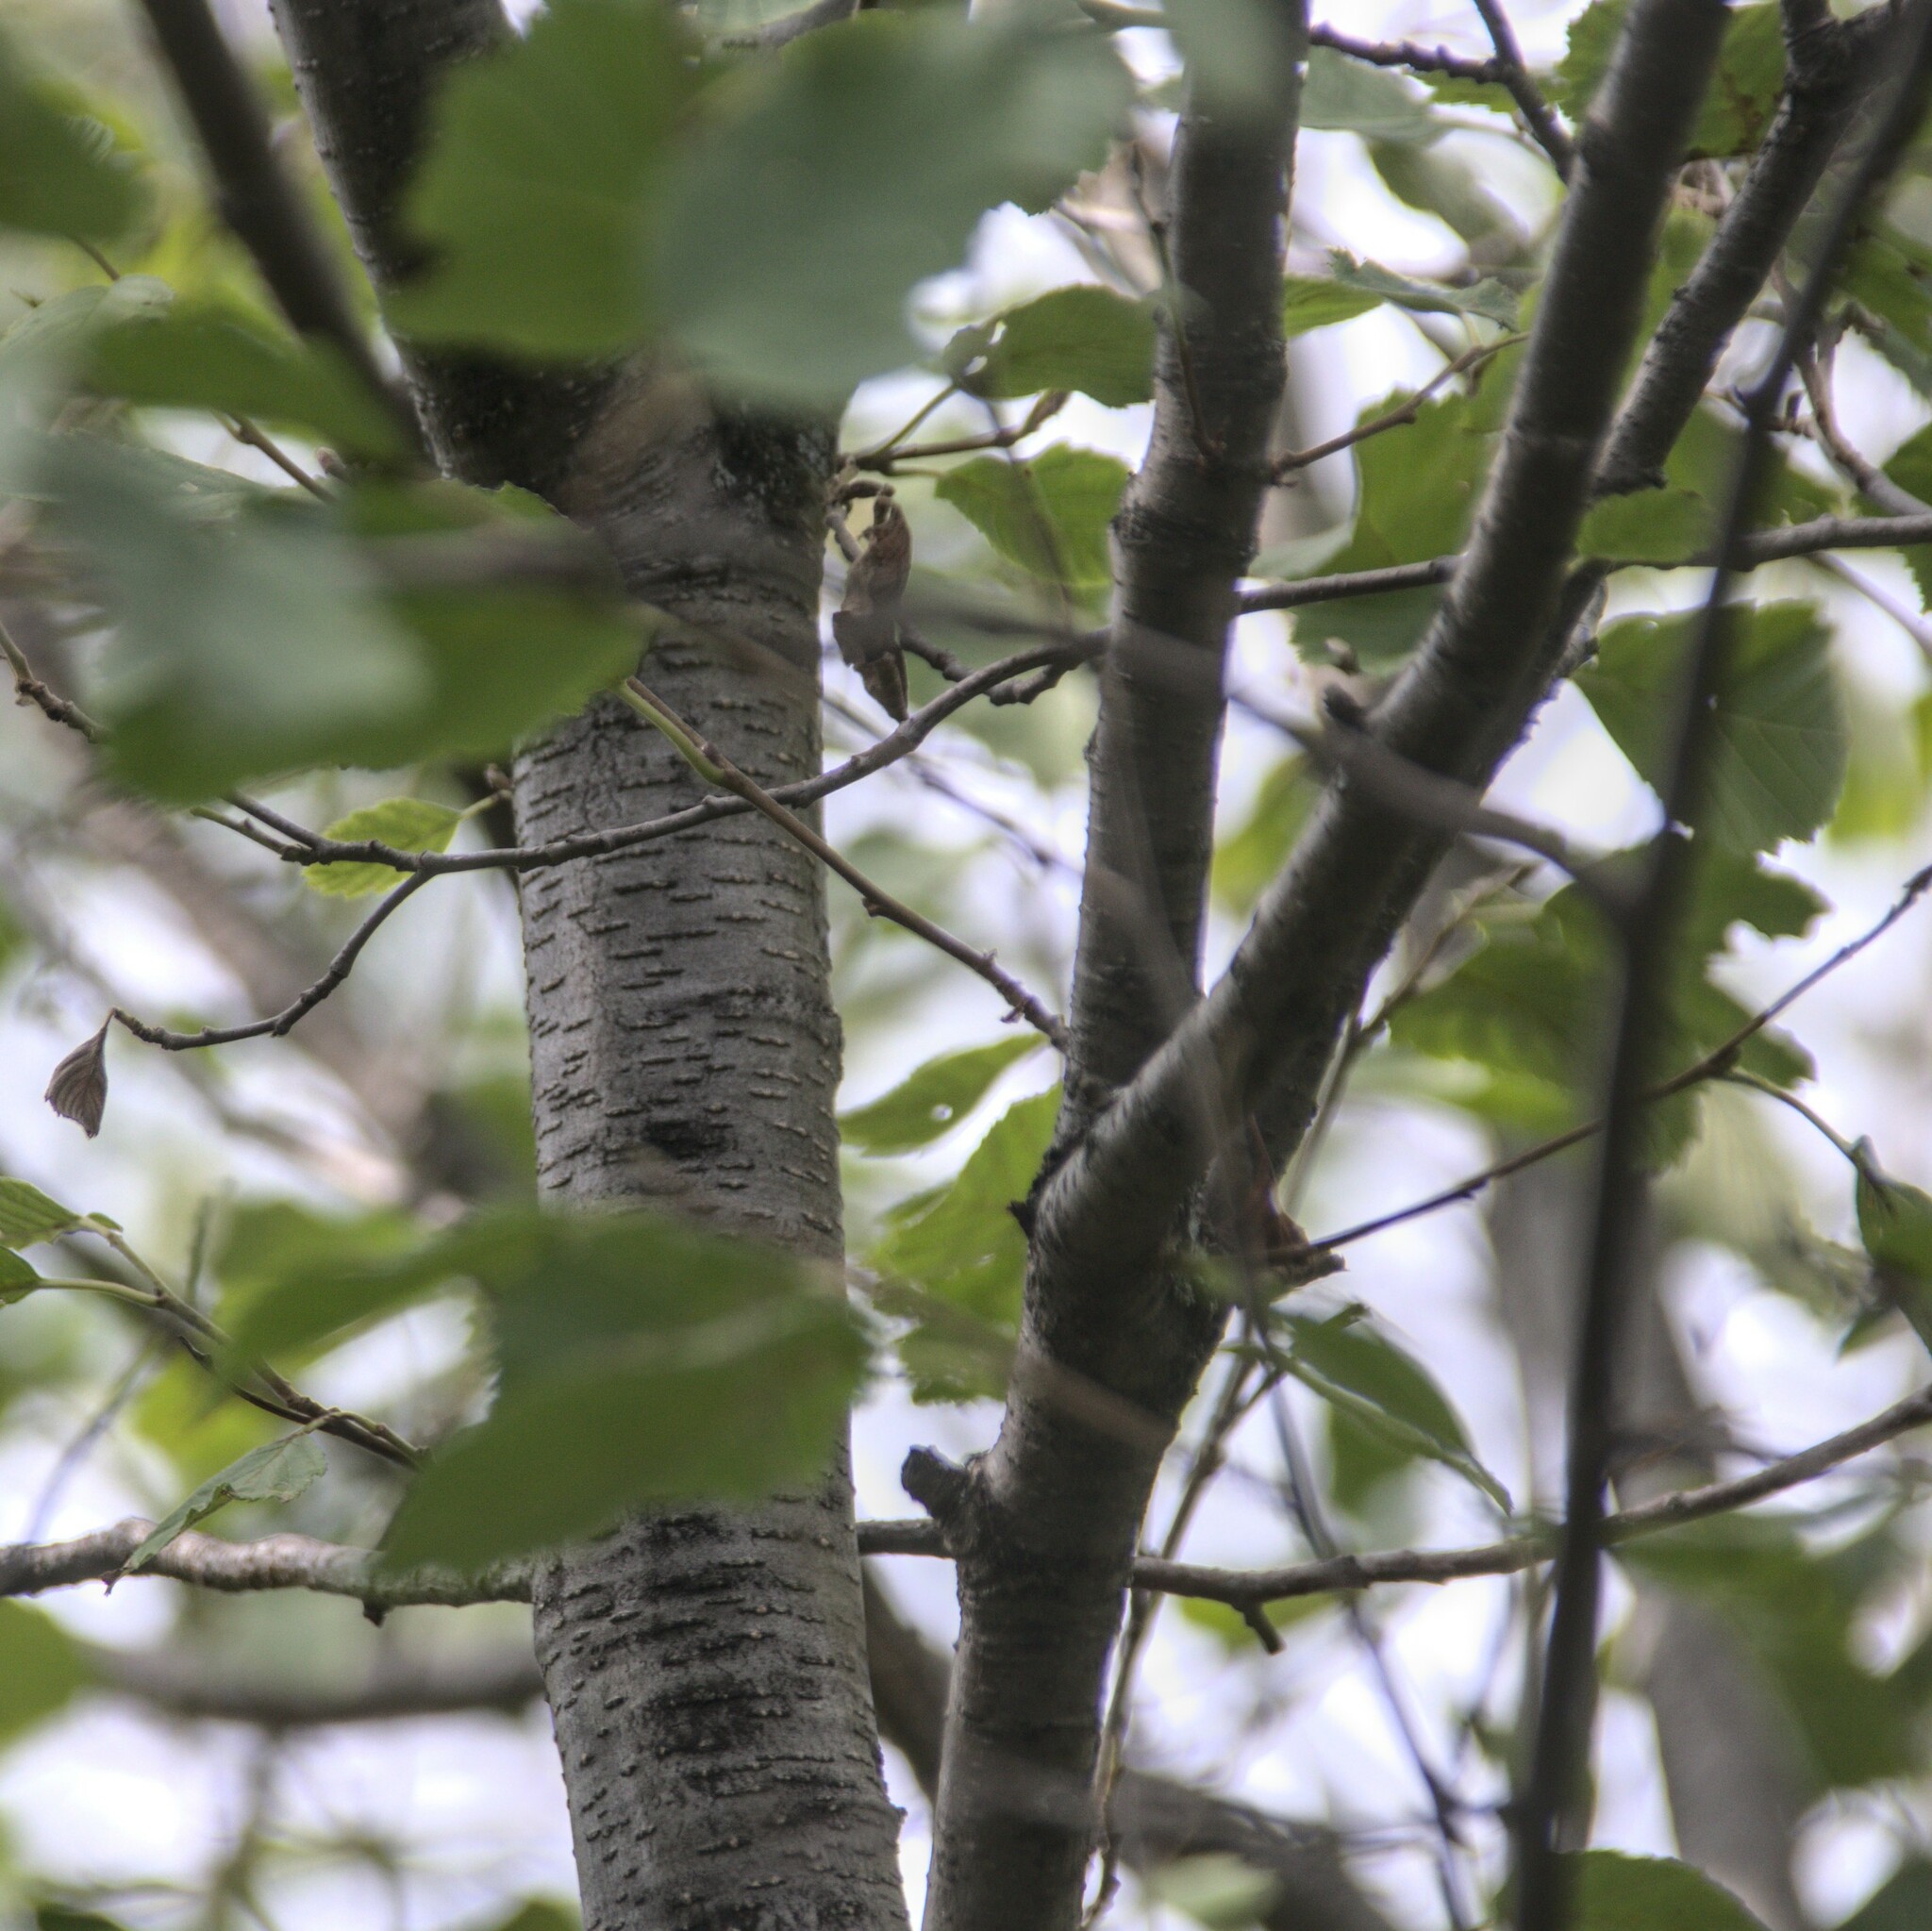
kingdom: Plantae
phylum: Tracheophyta
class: Magnoliopsida
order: Fagales
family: Betulaceae
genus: Alnus
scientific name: Alnus incana
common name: Grey alder
